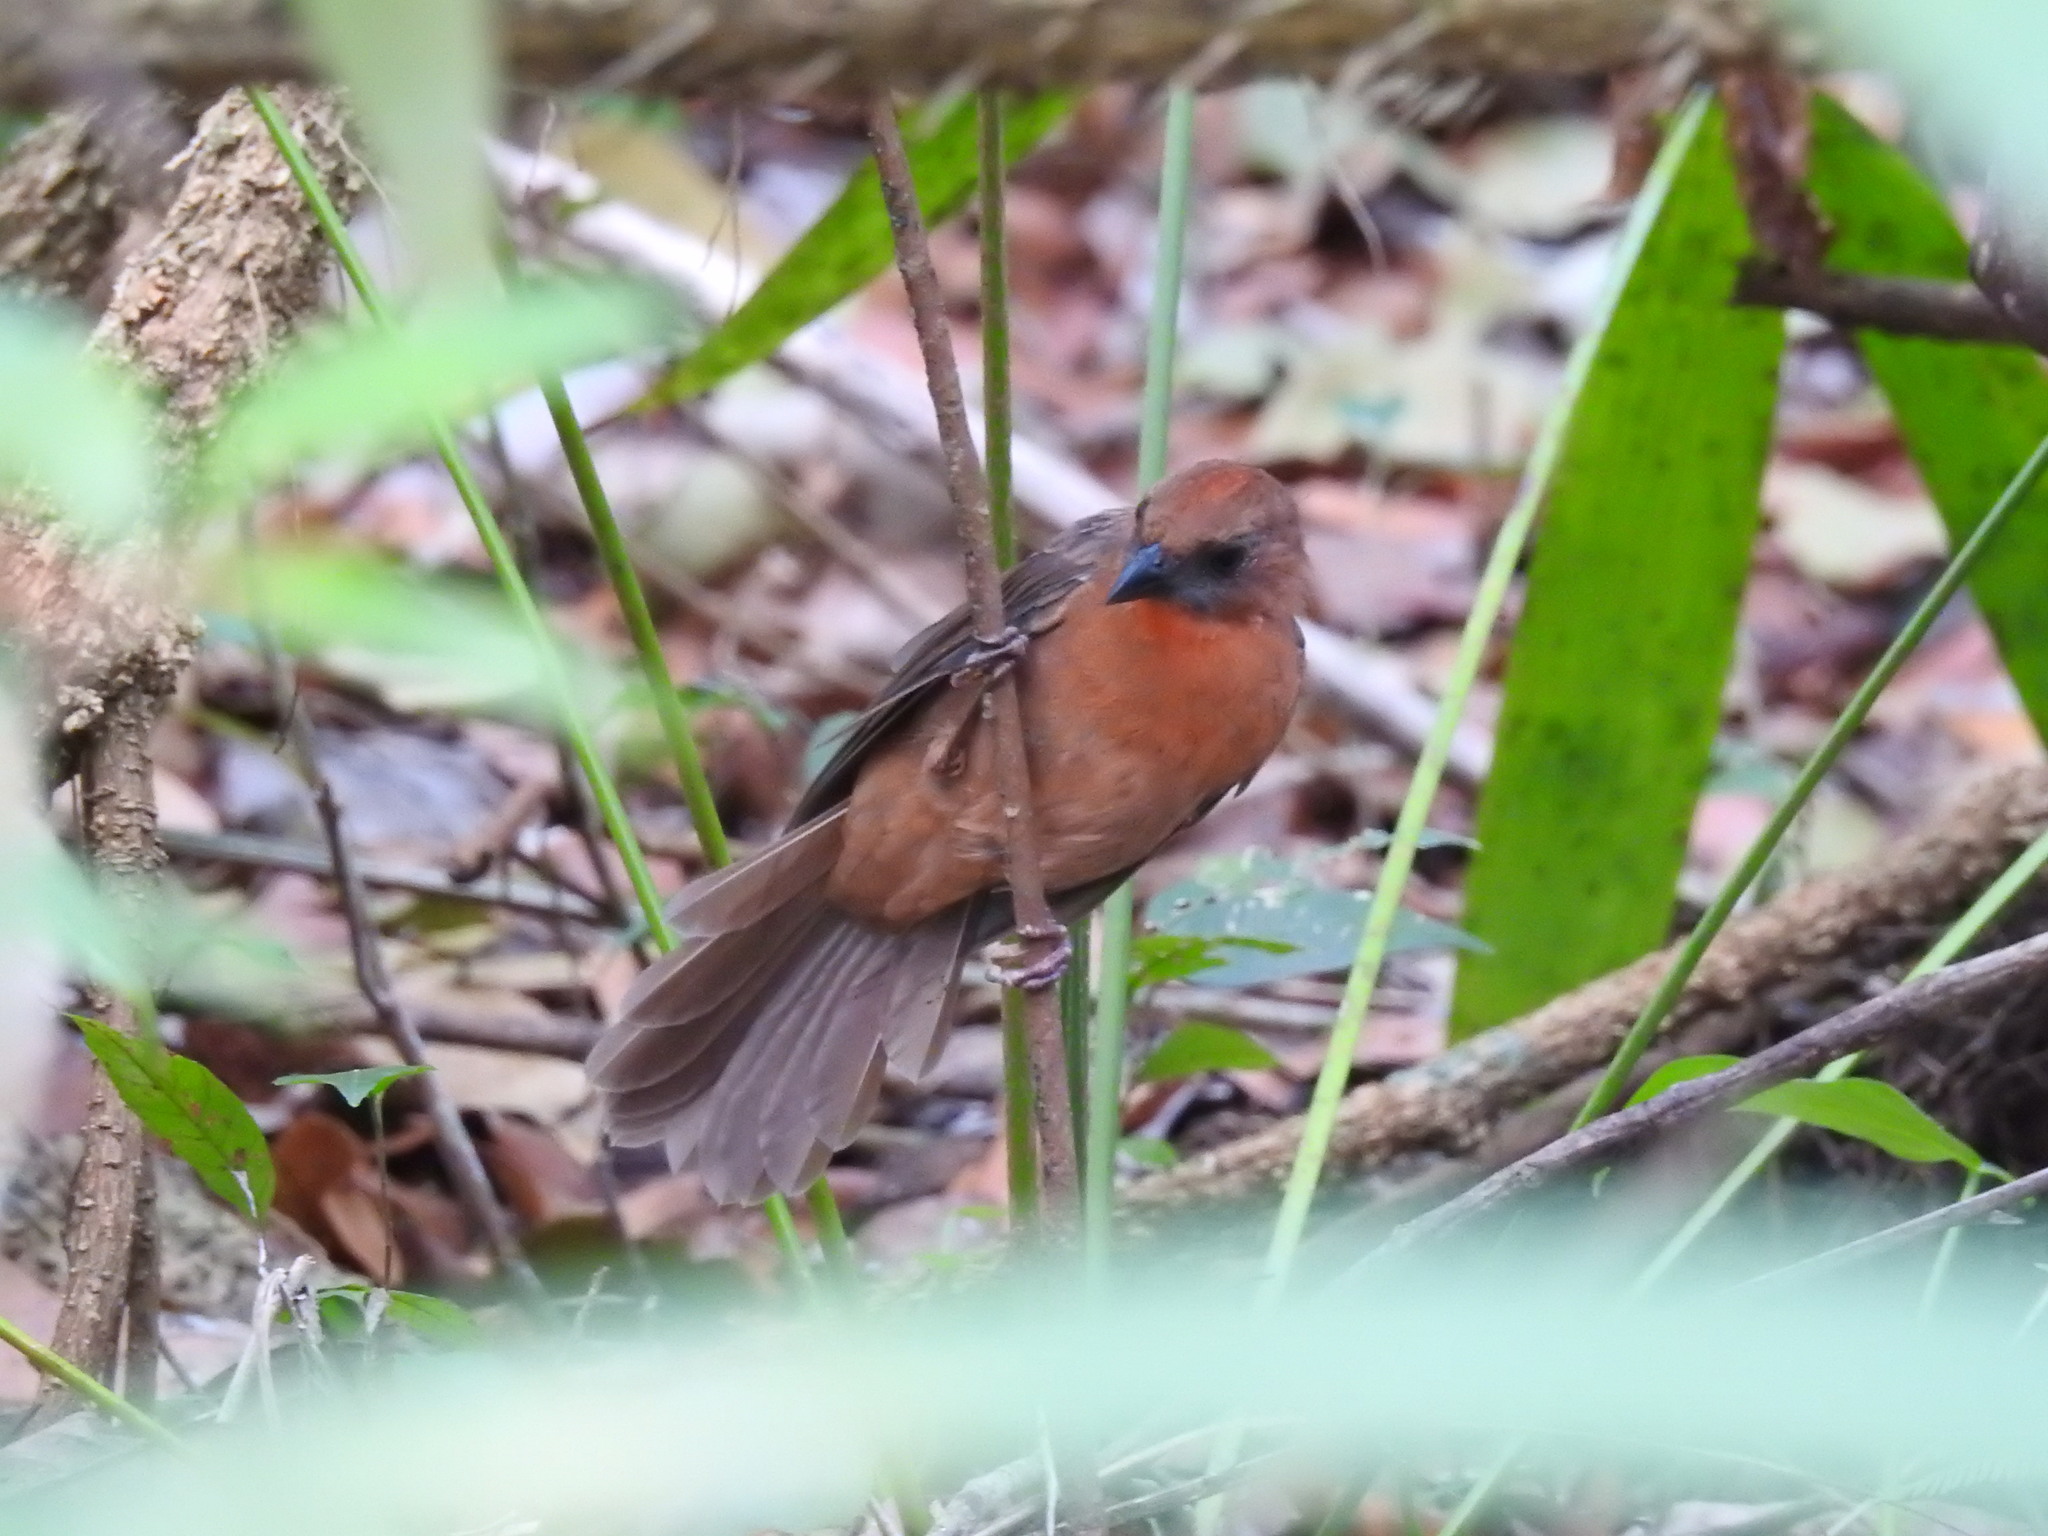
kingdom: Animalia
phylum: Chordata
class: Aves
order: Passeriformes
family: Cardinalidae
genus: Habia
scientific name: Habia fuscicauda
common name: Red-throated ant-tanager
